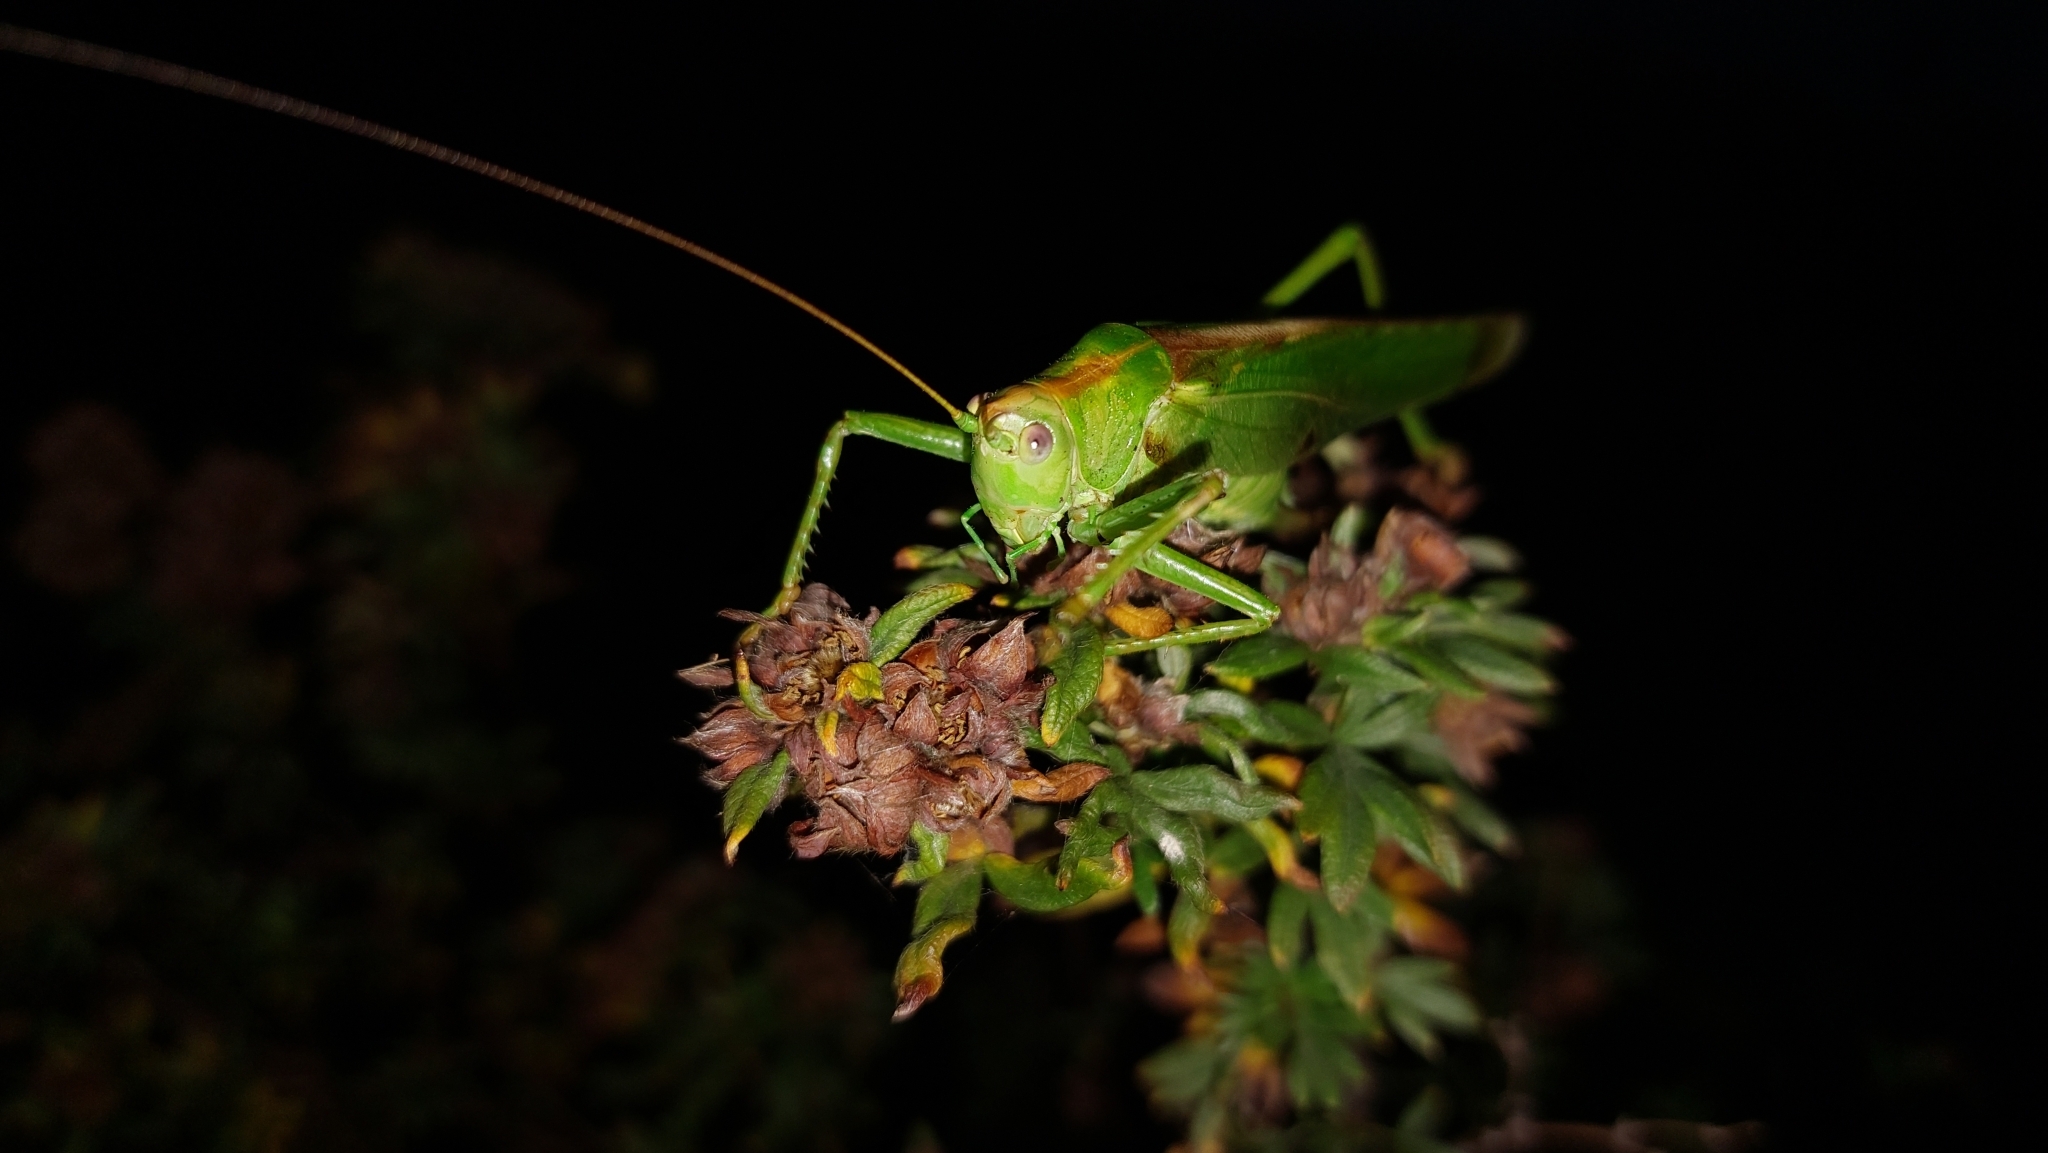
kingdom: Animalia
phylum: Arthropoda
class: Insecta
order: Orthoptera
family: Tettigoniidae
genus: Tettigonia
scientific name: Tettigonia viridissima
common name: Great green bush-cricket
